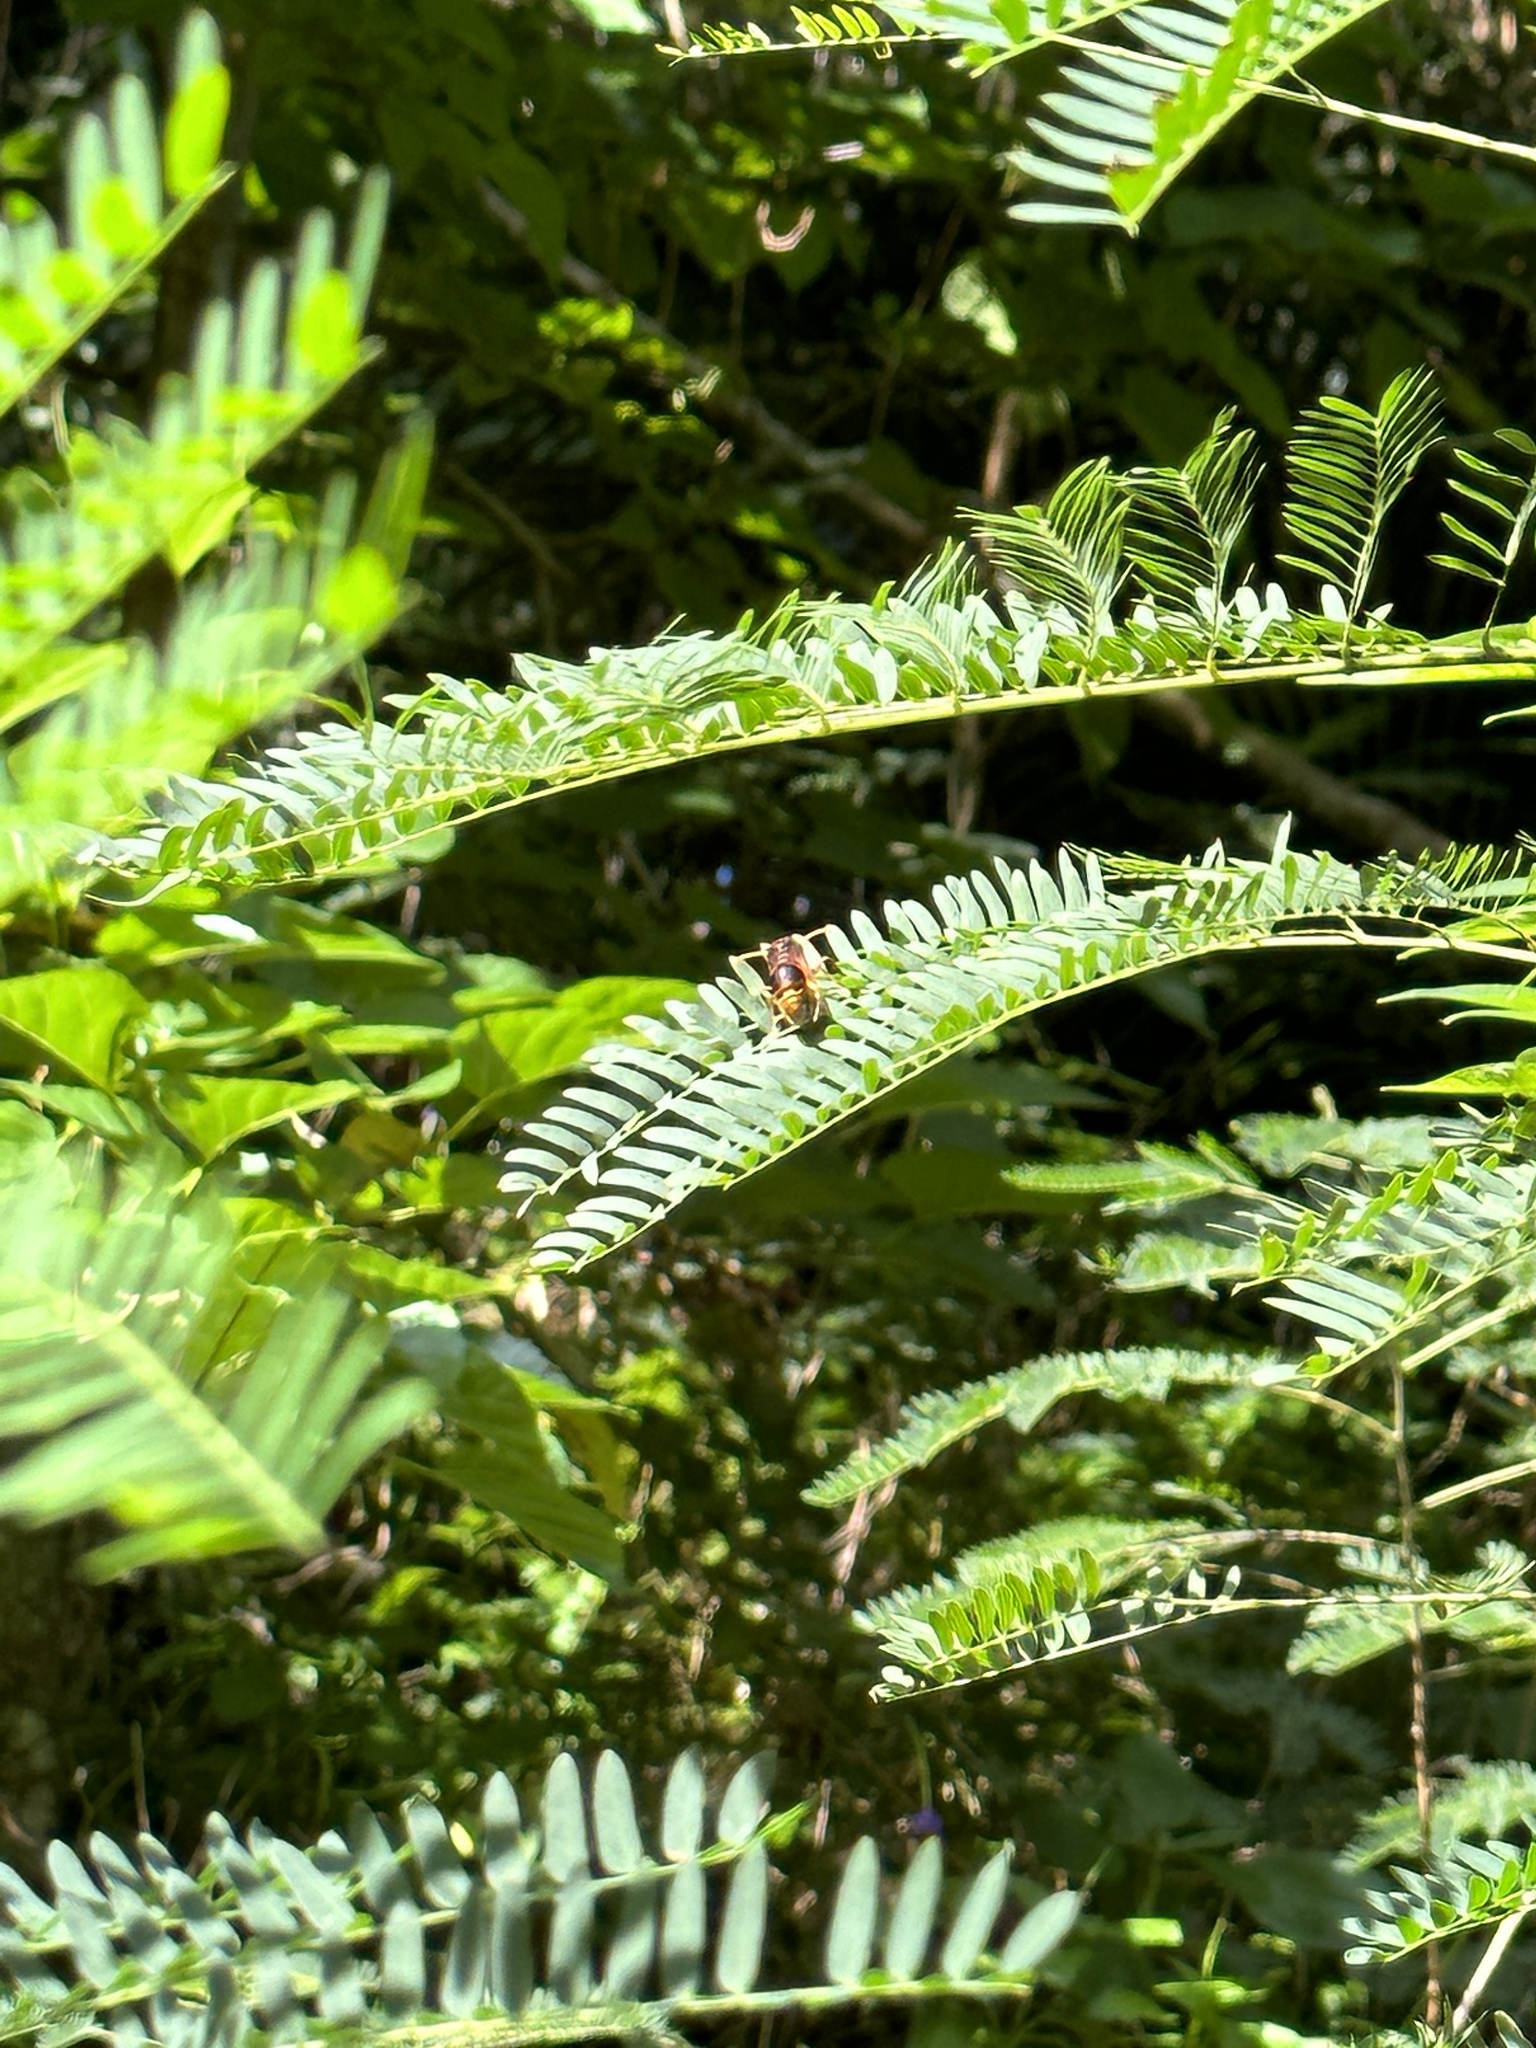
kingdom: Animalia
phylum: Arthropoda
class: Insecta
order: Hymenoptera
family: Eumenidae
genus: Delta
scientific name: Delta pyriforme
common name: Wasp
